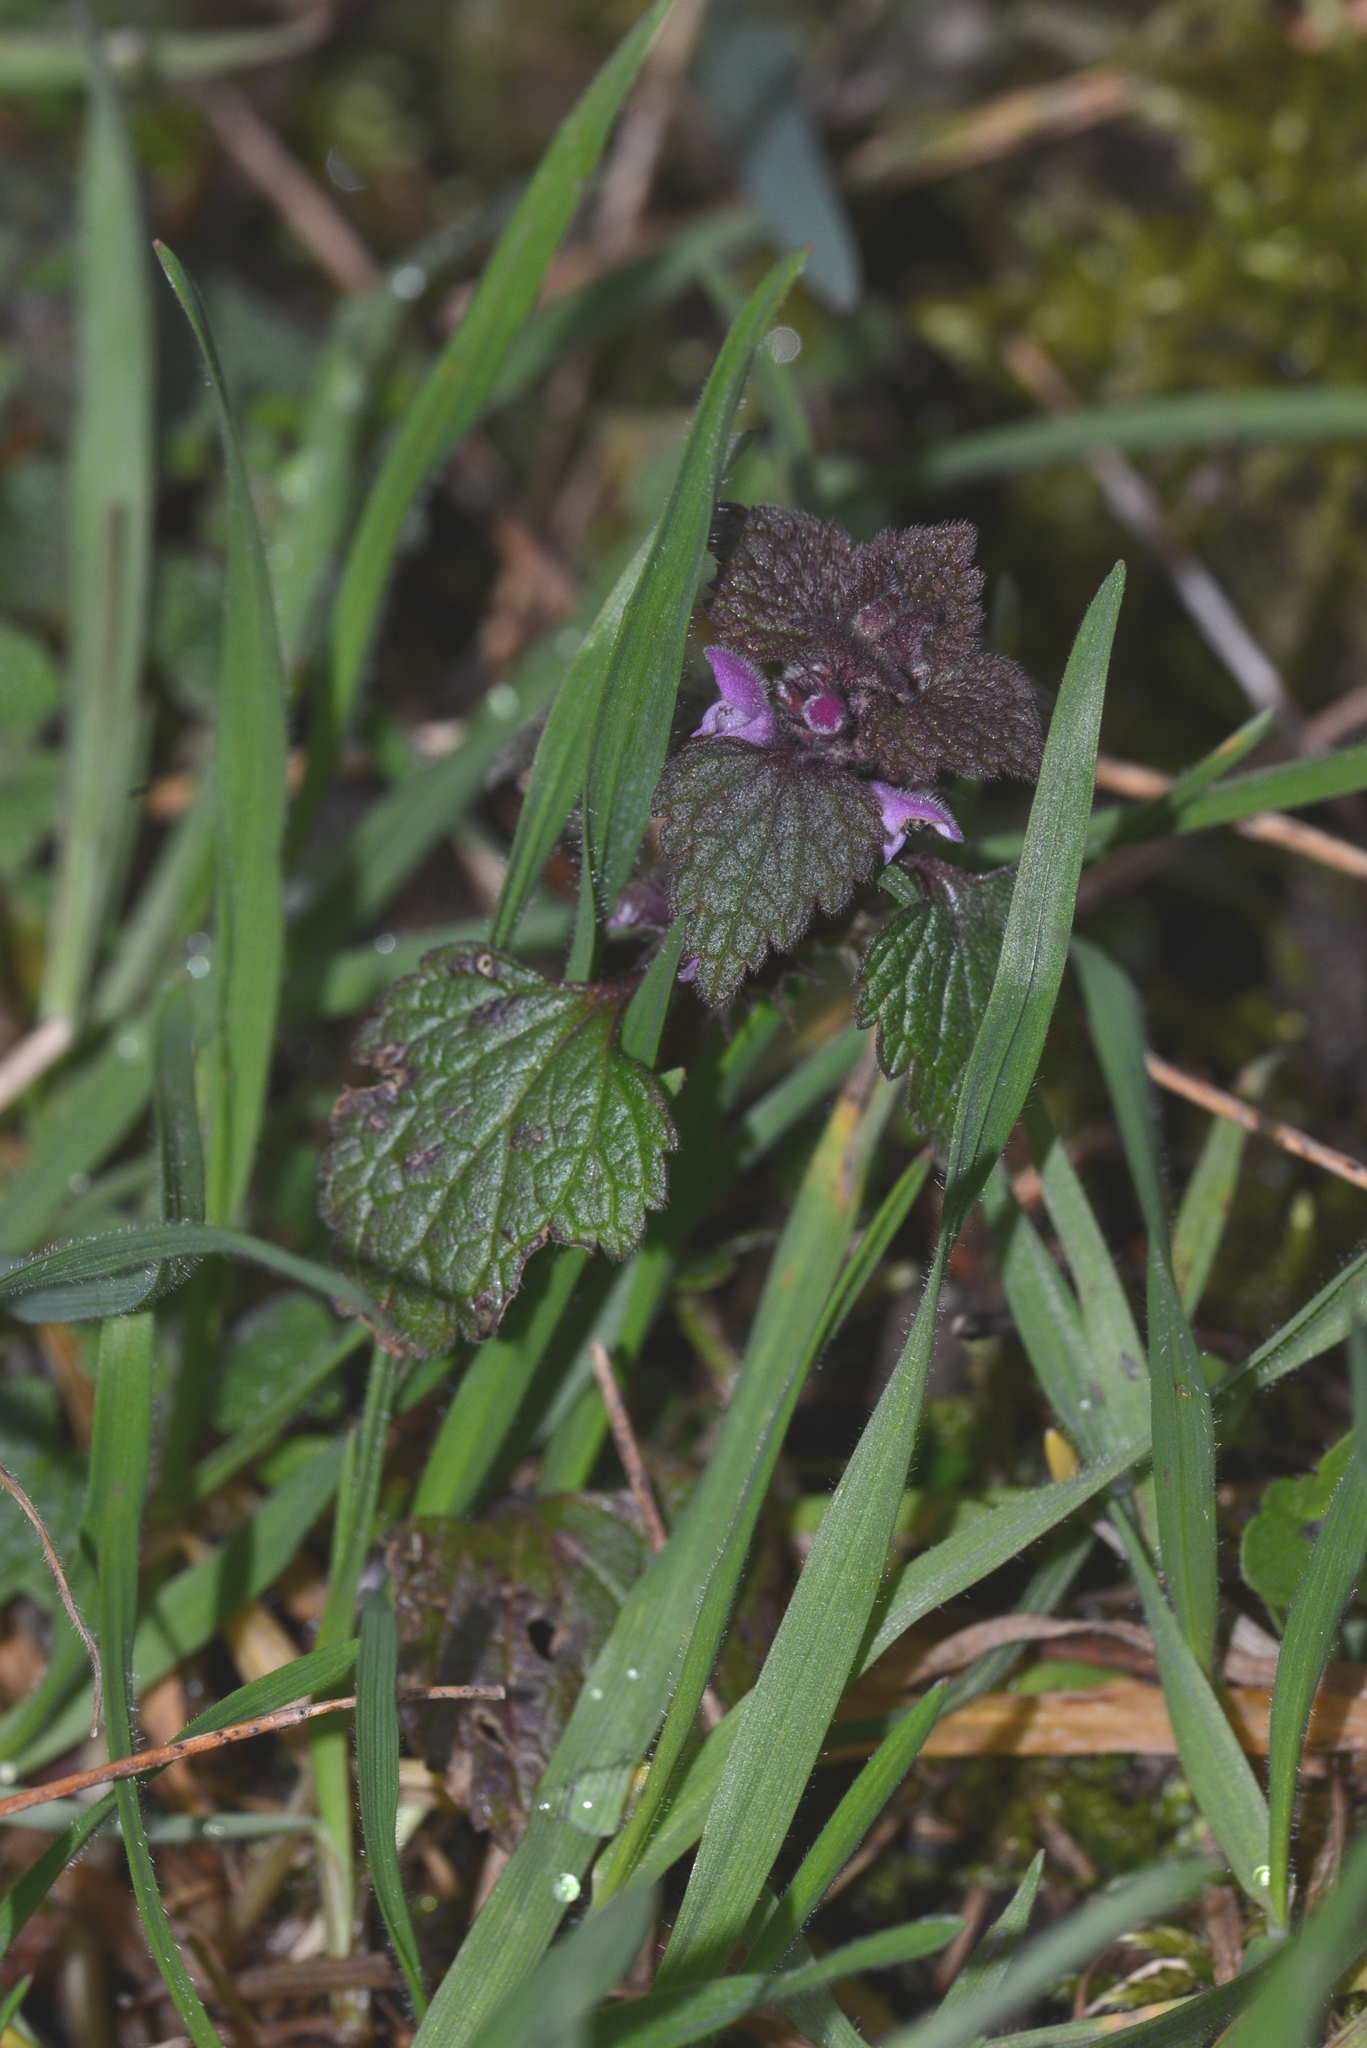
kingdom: Plantae
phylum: Tracheophyta
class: Magnoliopsida
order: Lamiales
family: Lamiaceae
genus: Lamium
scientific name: Lamium purpureum
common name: Red dead-nettle
